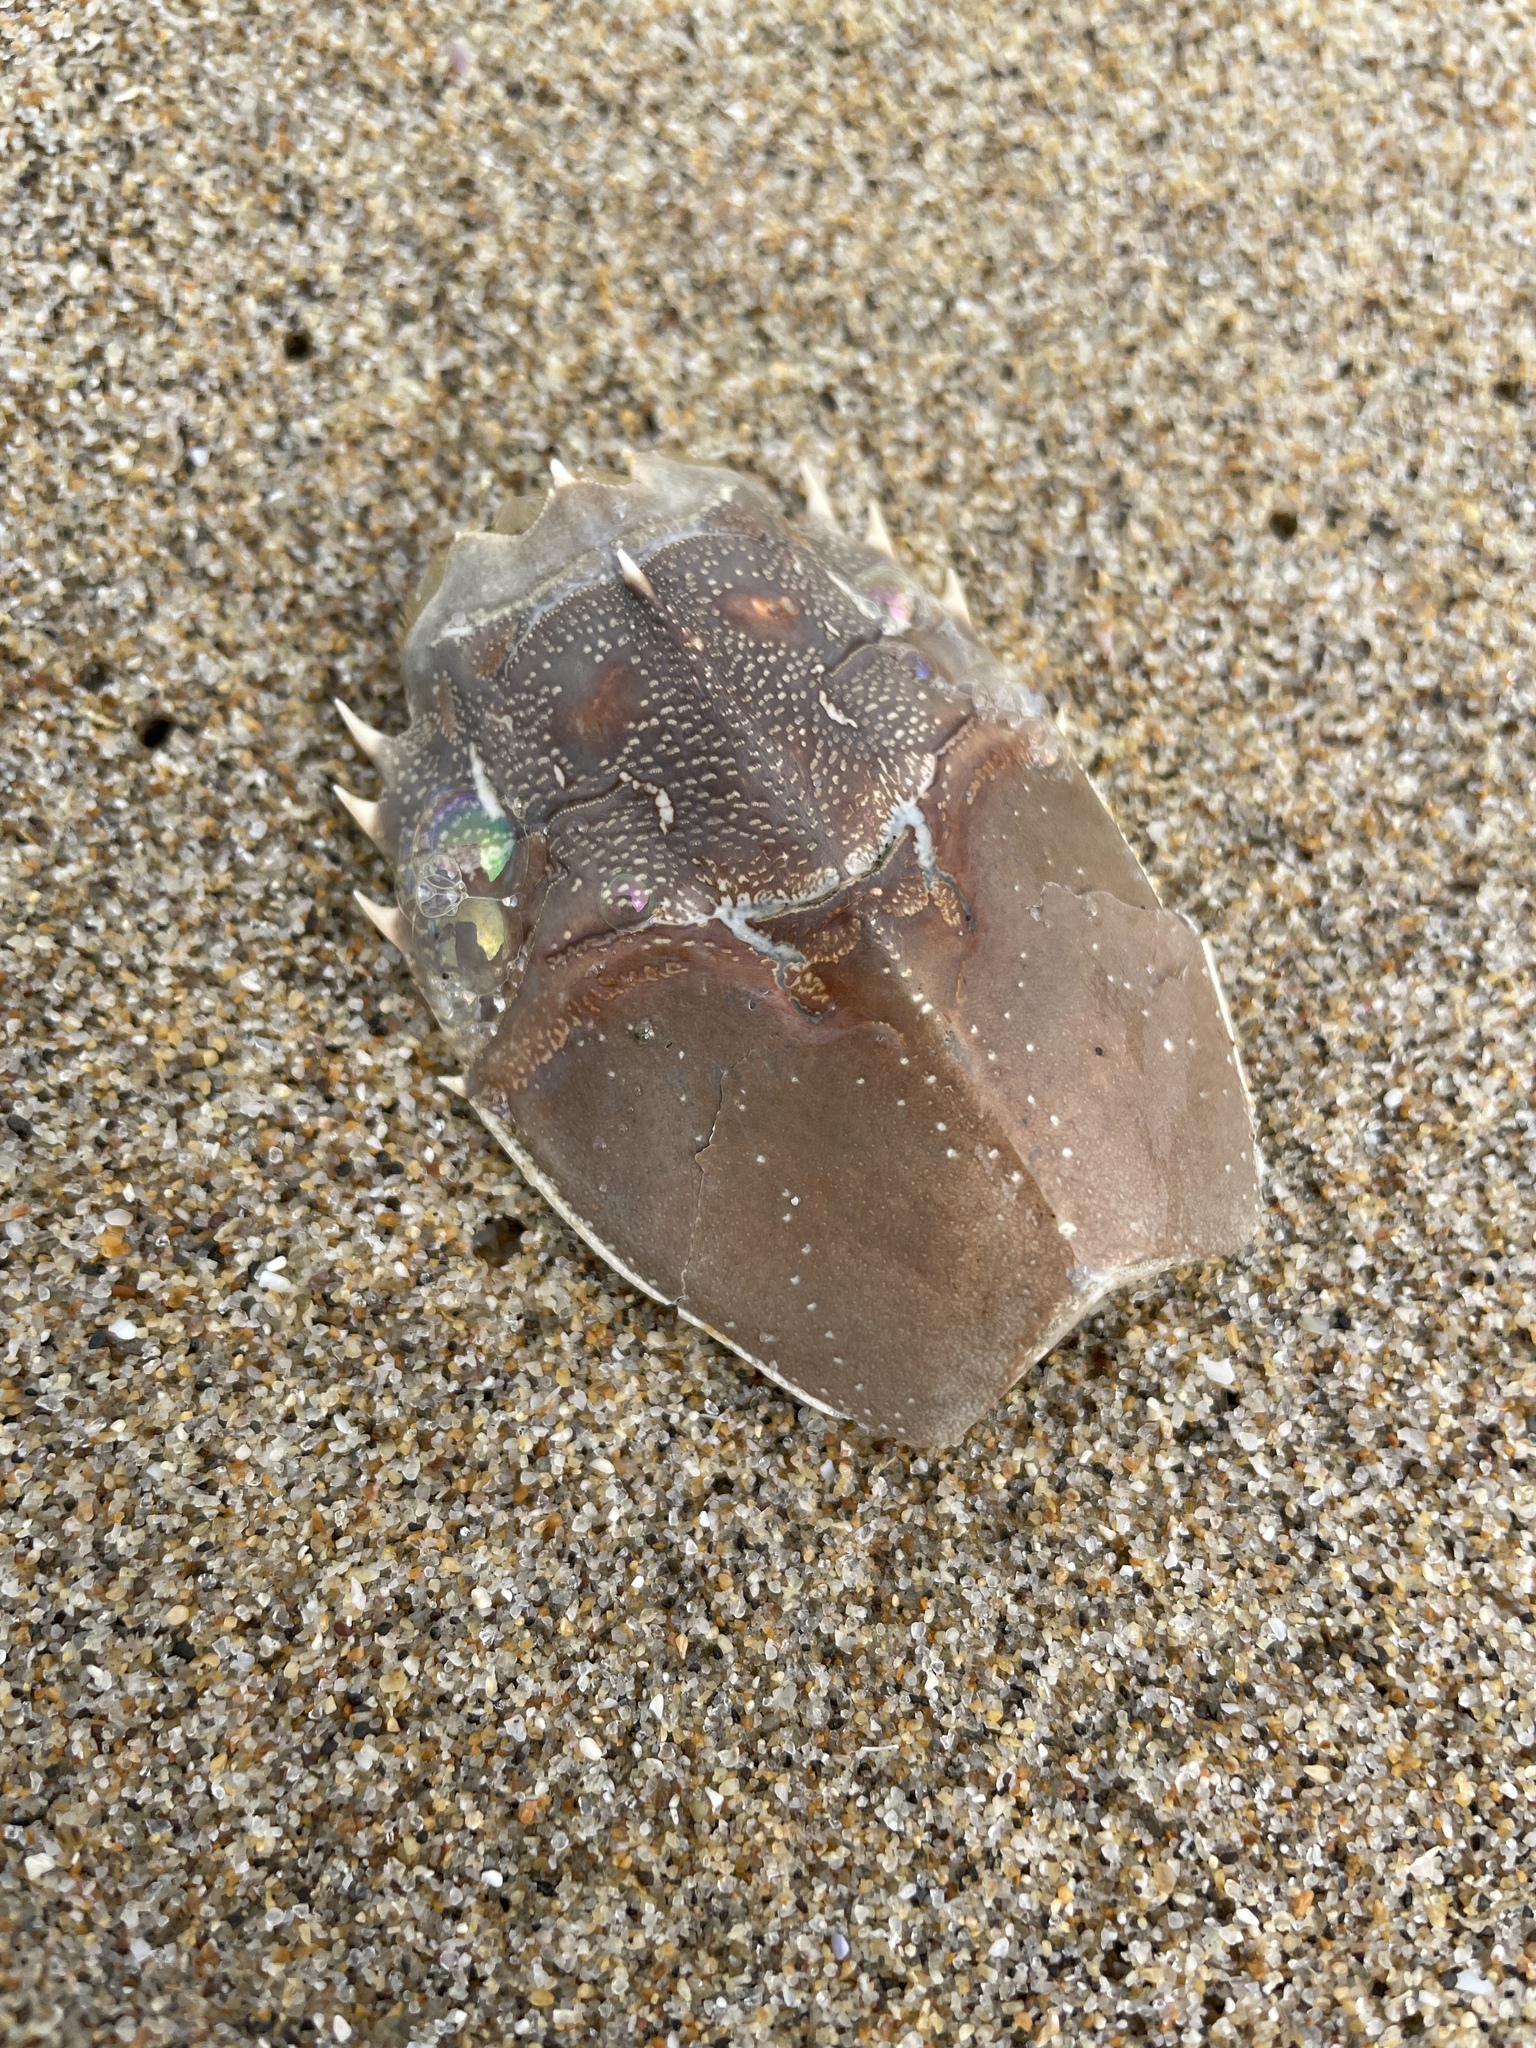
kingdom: Animalia
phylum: Arthropoda
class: Malacostraca
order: Decapoda
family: Blepharipodidae
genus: Blepharipoda
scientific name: Blepharipoda occidentalis
